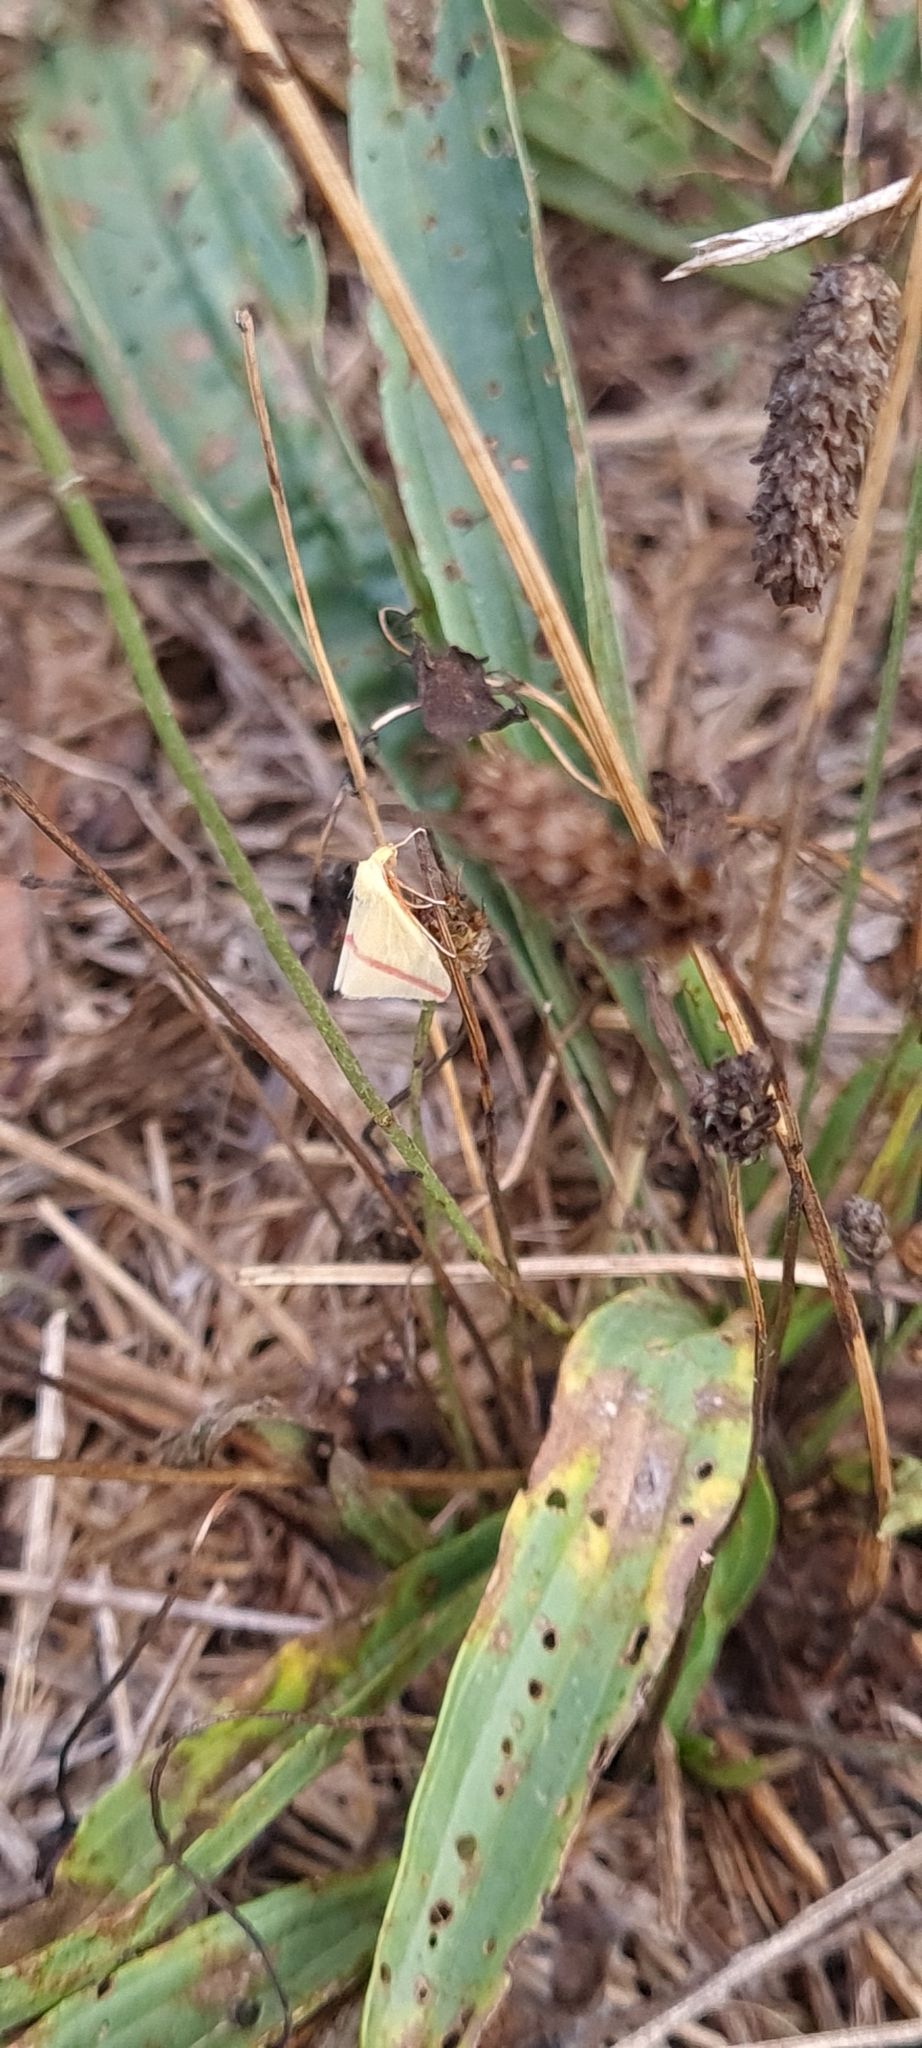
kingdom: Animalia
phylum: Arthropoda
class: Insecta
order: Lepidoptera
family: Geometridae
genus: Rhodometra
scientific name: Rhodometra sacraria
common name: Vestal
